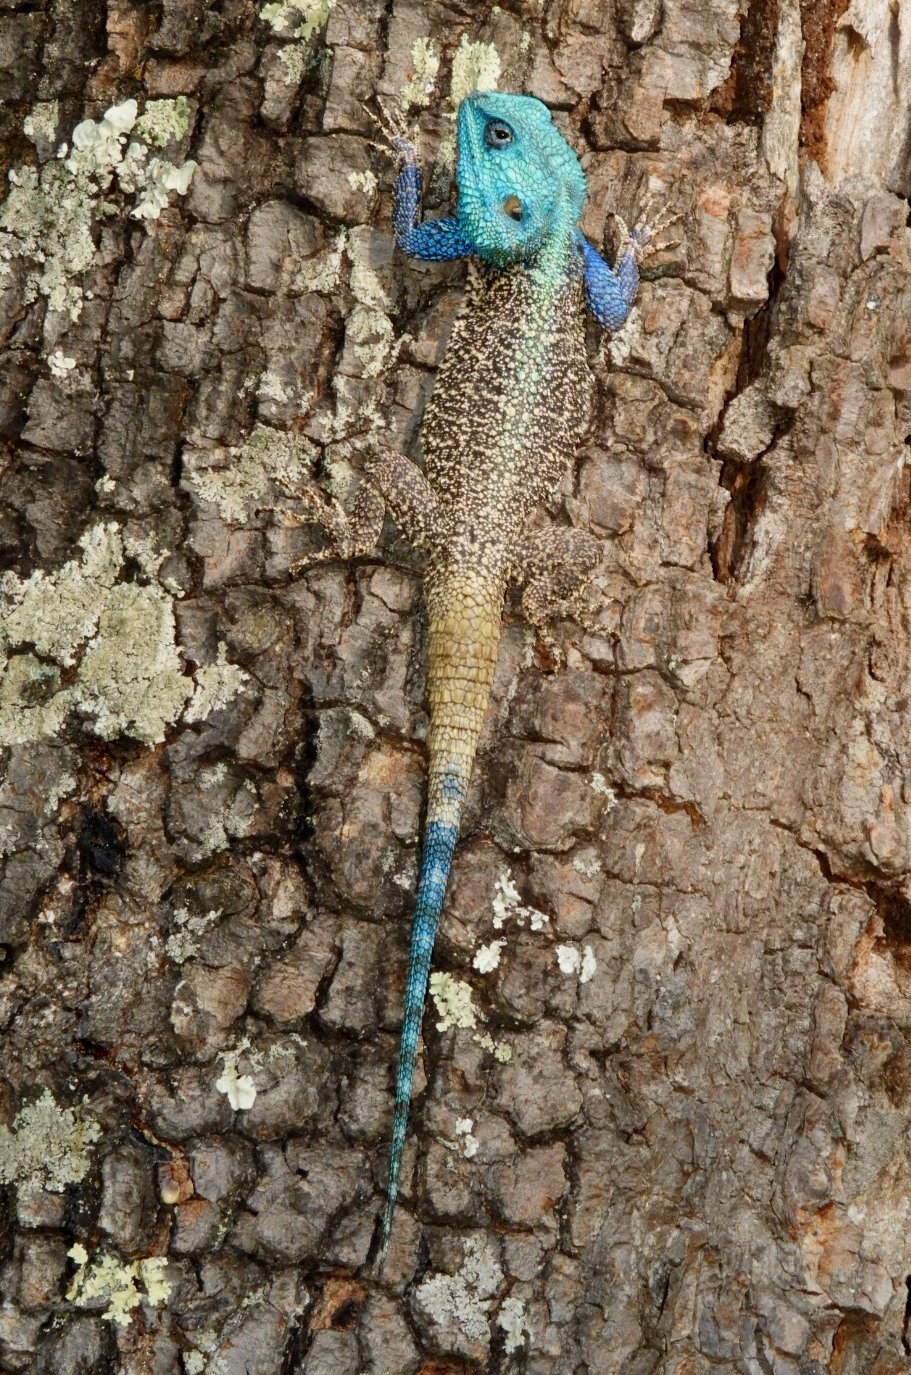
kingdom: Animalia
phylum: Chordata
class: Squamata
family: Agamidae
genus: Acanthocercus
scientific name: Acanthocercus cyanocephalus
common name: Falk’s blue-headed tree agama
